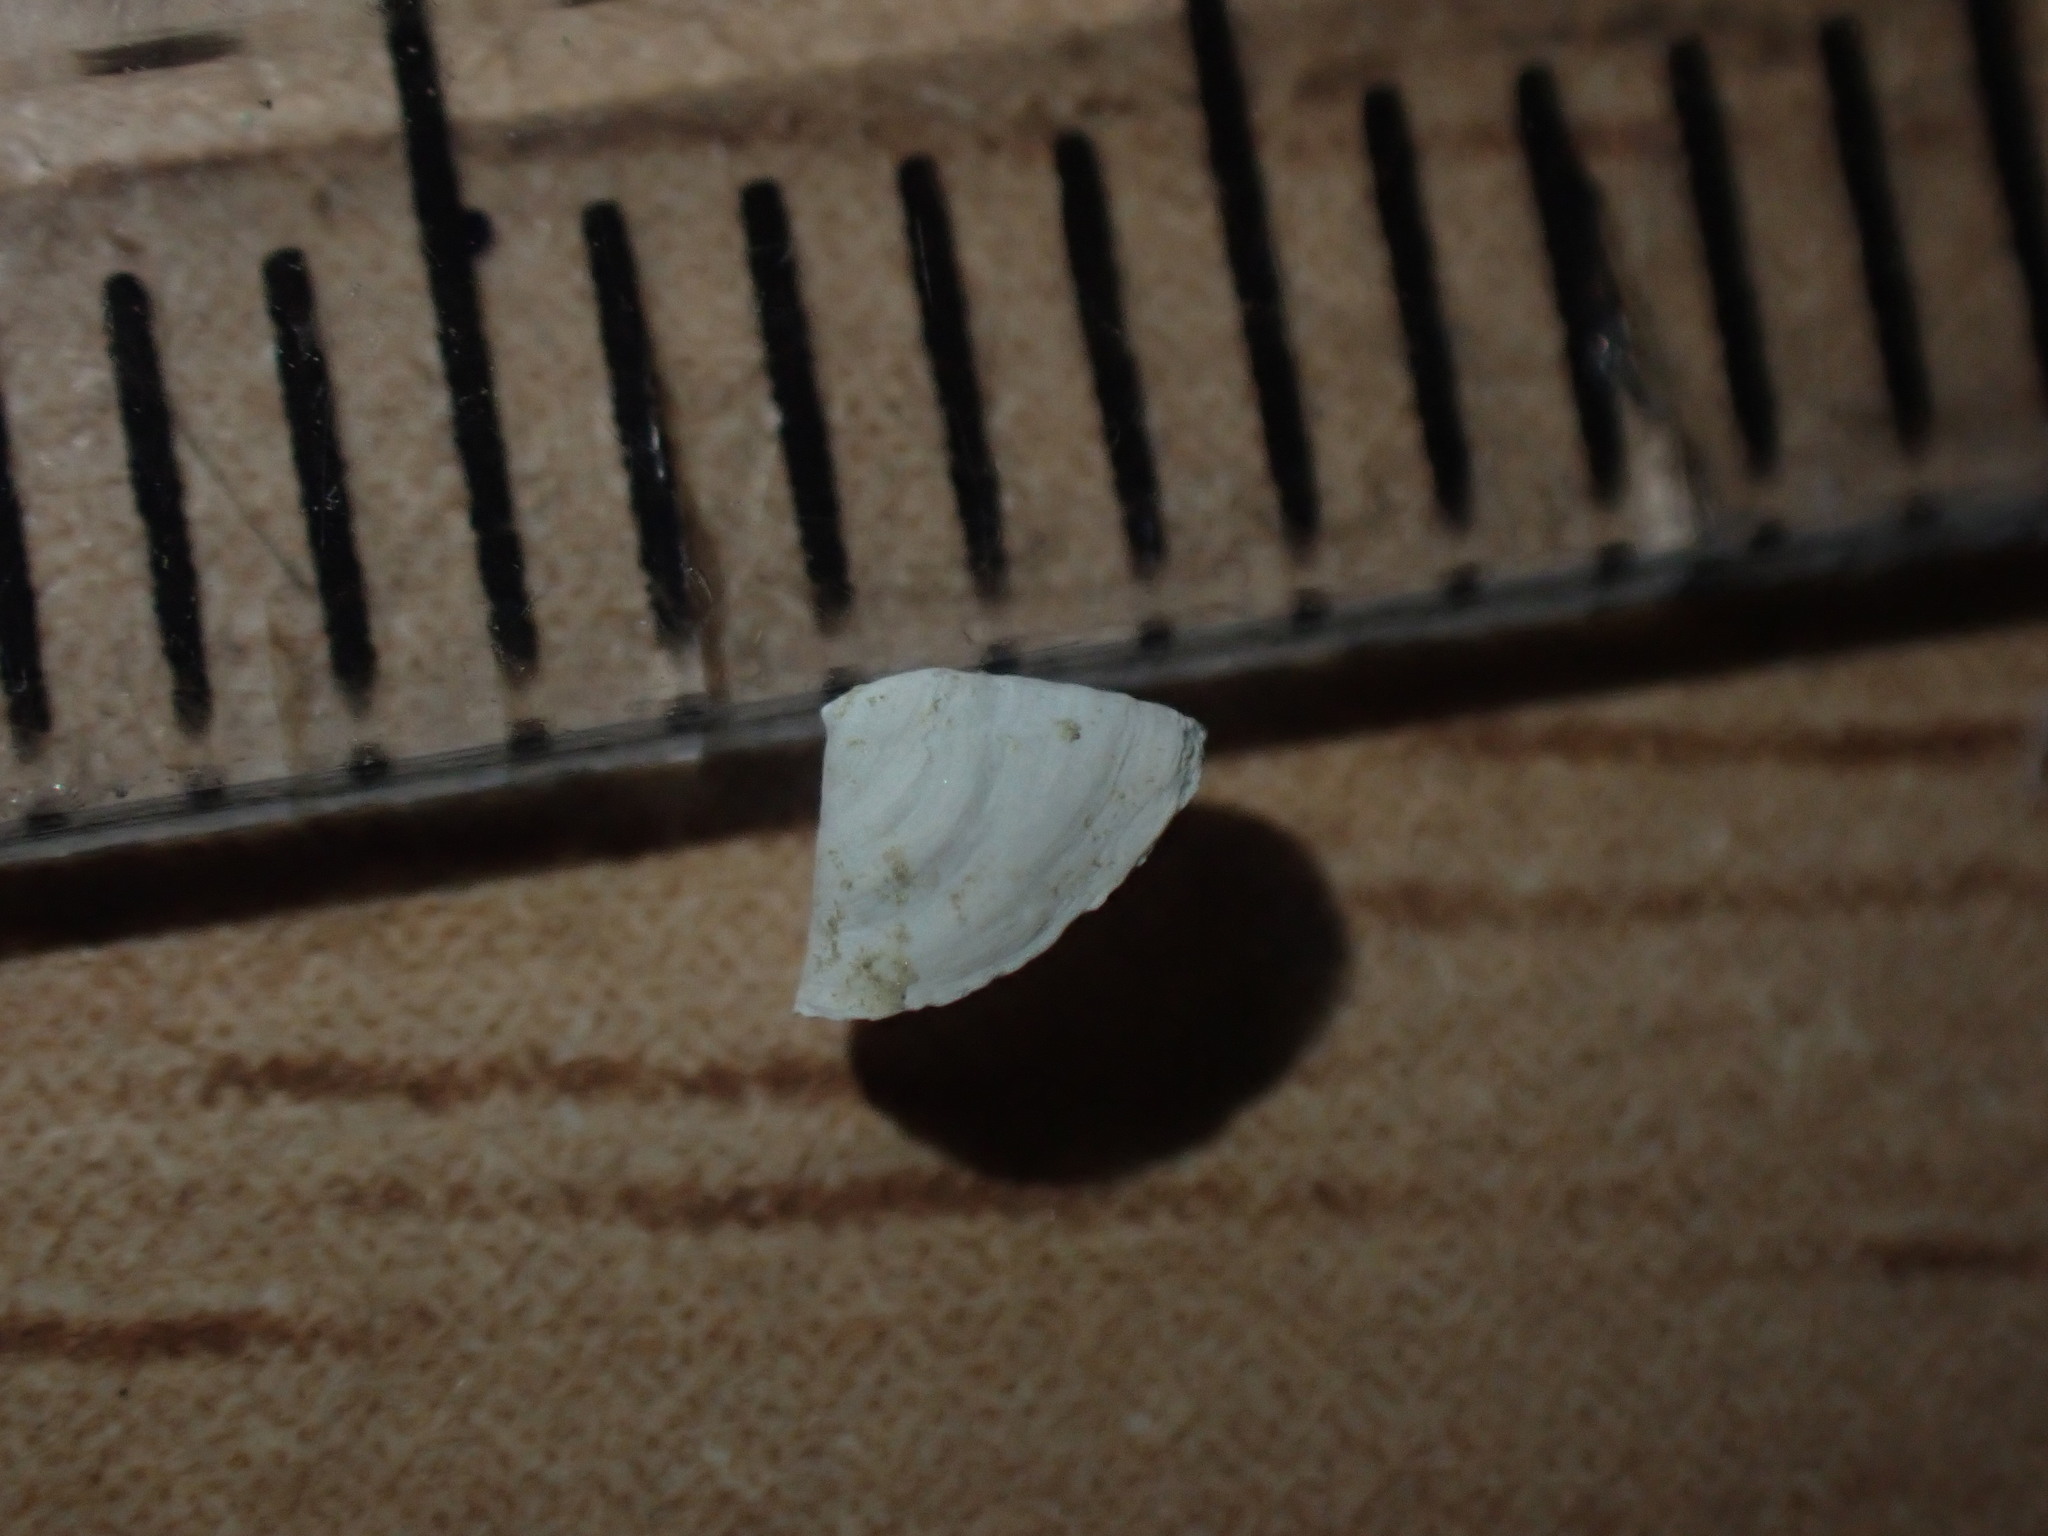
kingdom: Animalia
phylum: Mollusca
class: Gastropoda
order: Lepetellida
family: Lepetellidae
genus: Tecticrater
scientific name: Tecticrater compressus
